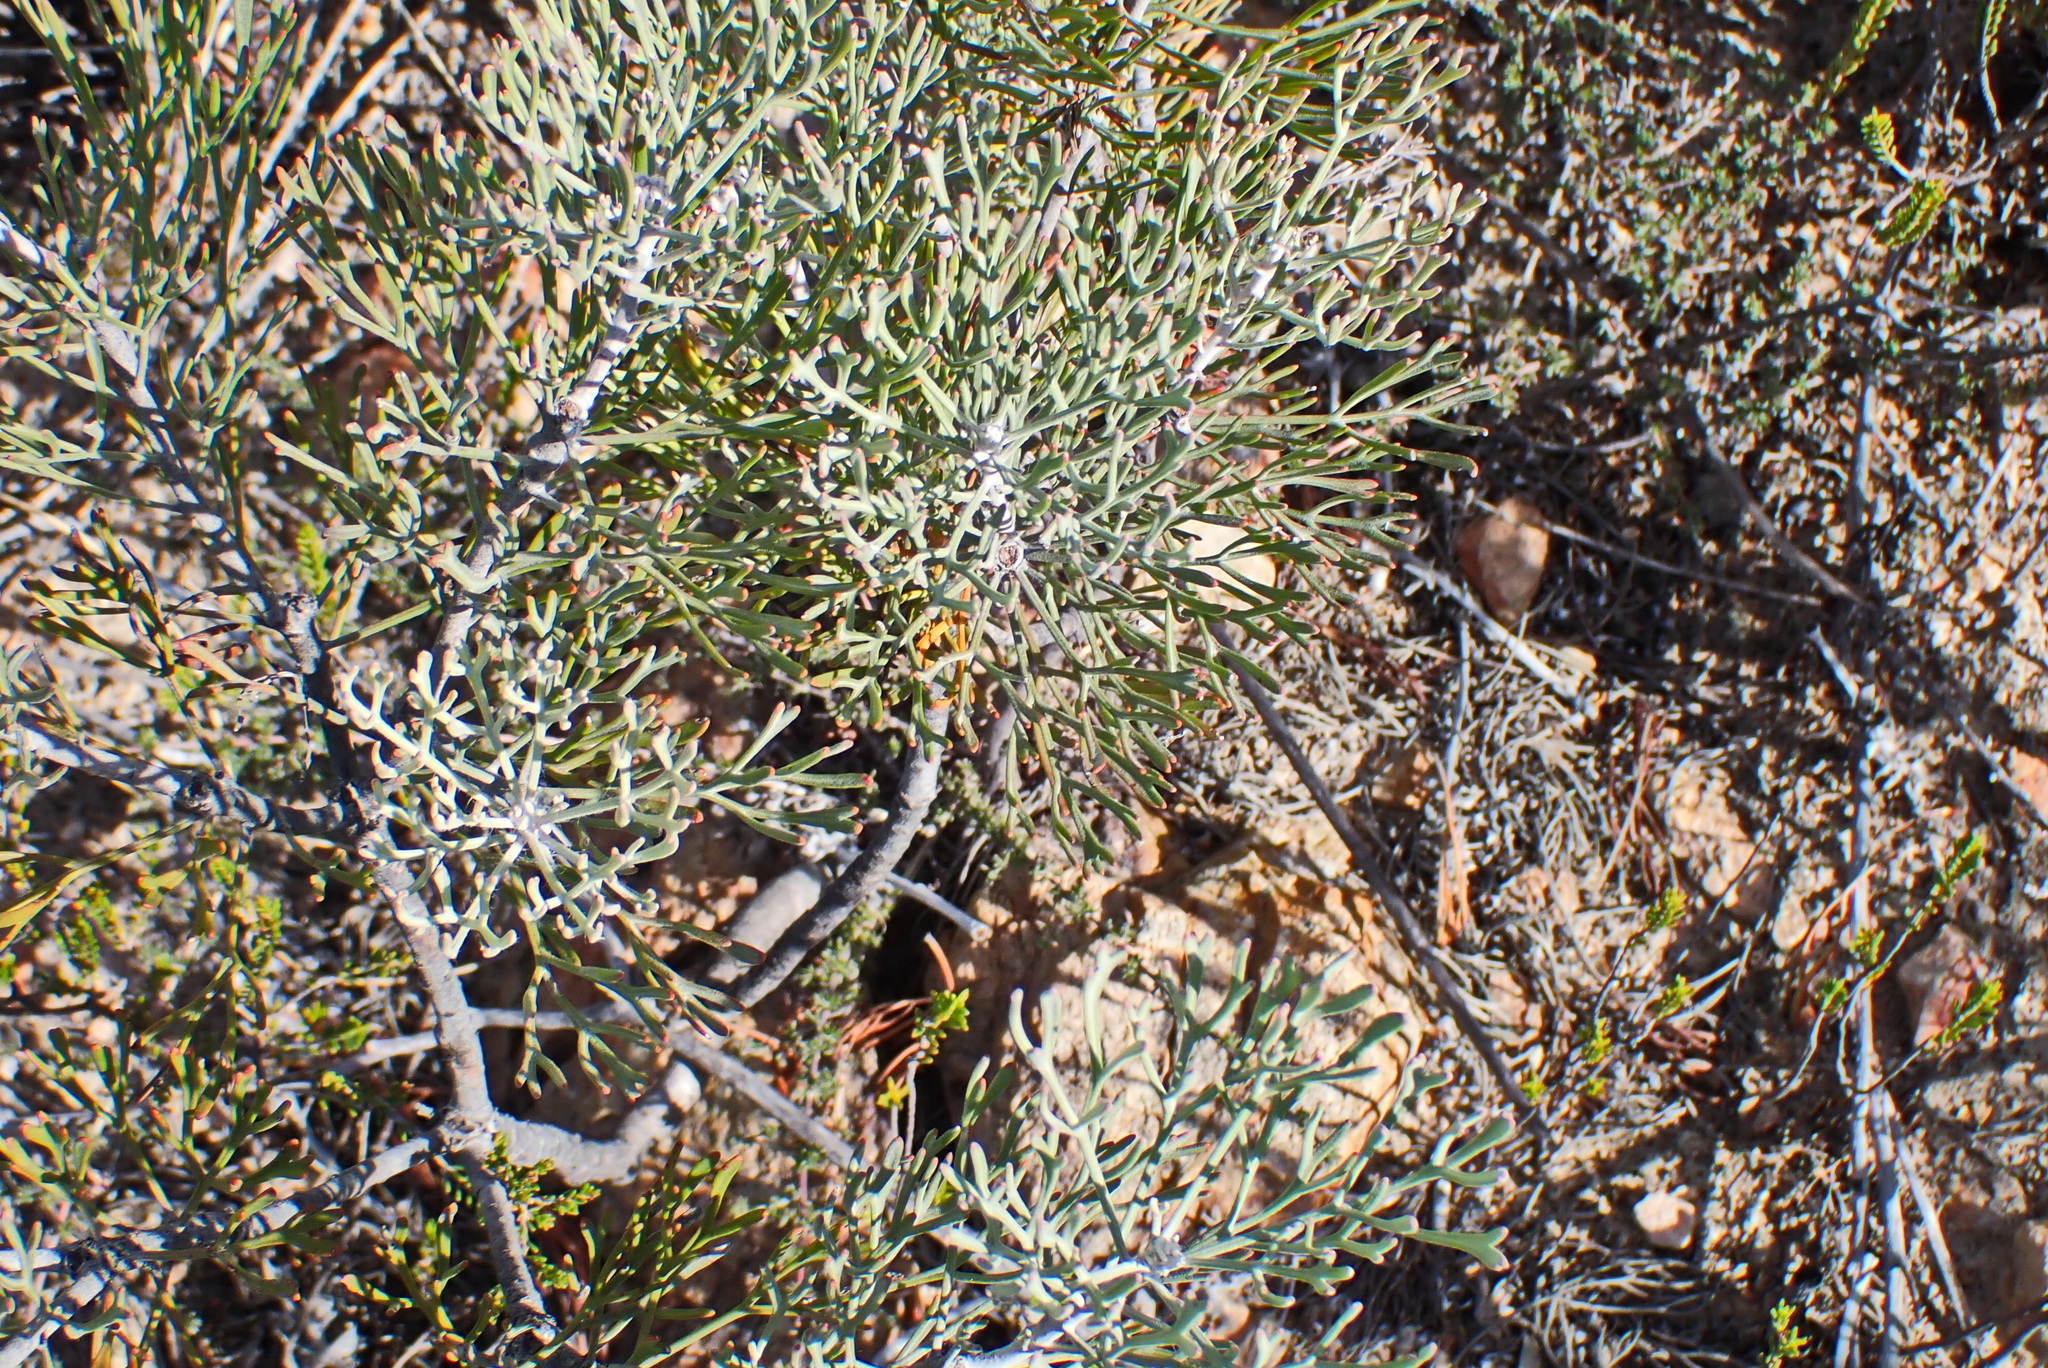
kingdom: Plantae
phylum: Tracheophyta
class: Magnoliopsida
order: Proteales
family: Proteaceae
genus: Paranomus
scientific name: Paranomus dispersus
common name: Long-head sceptre
